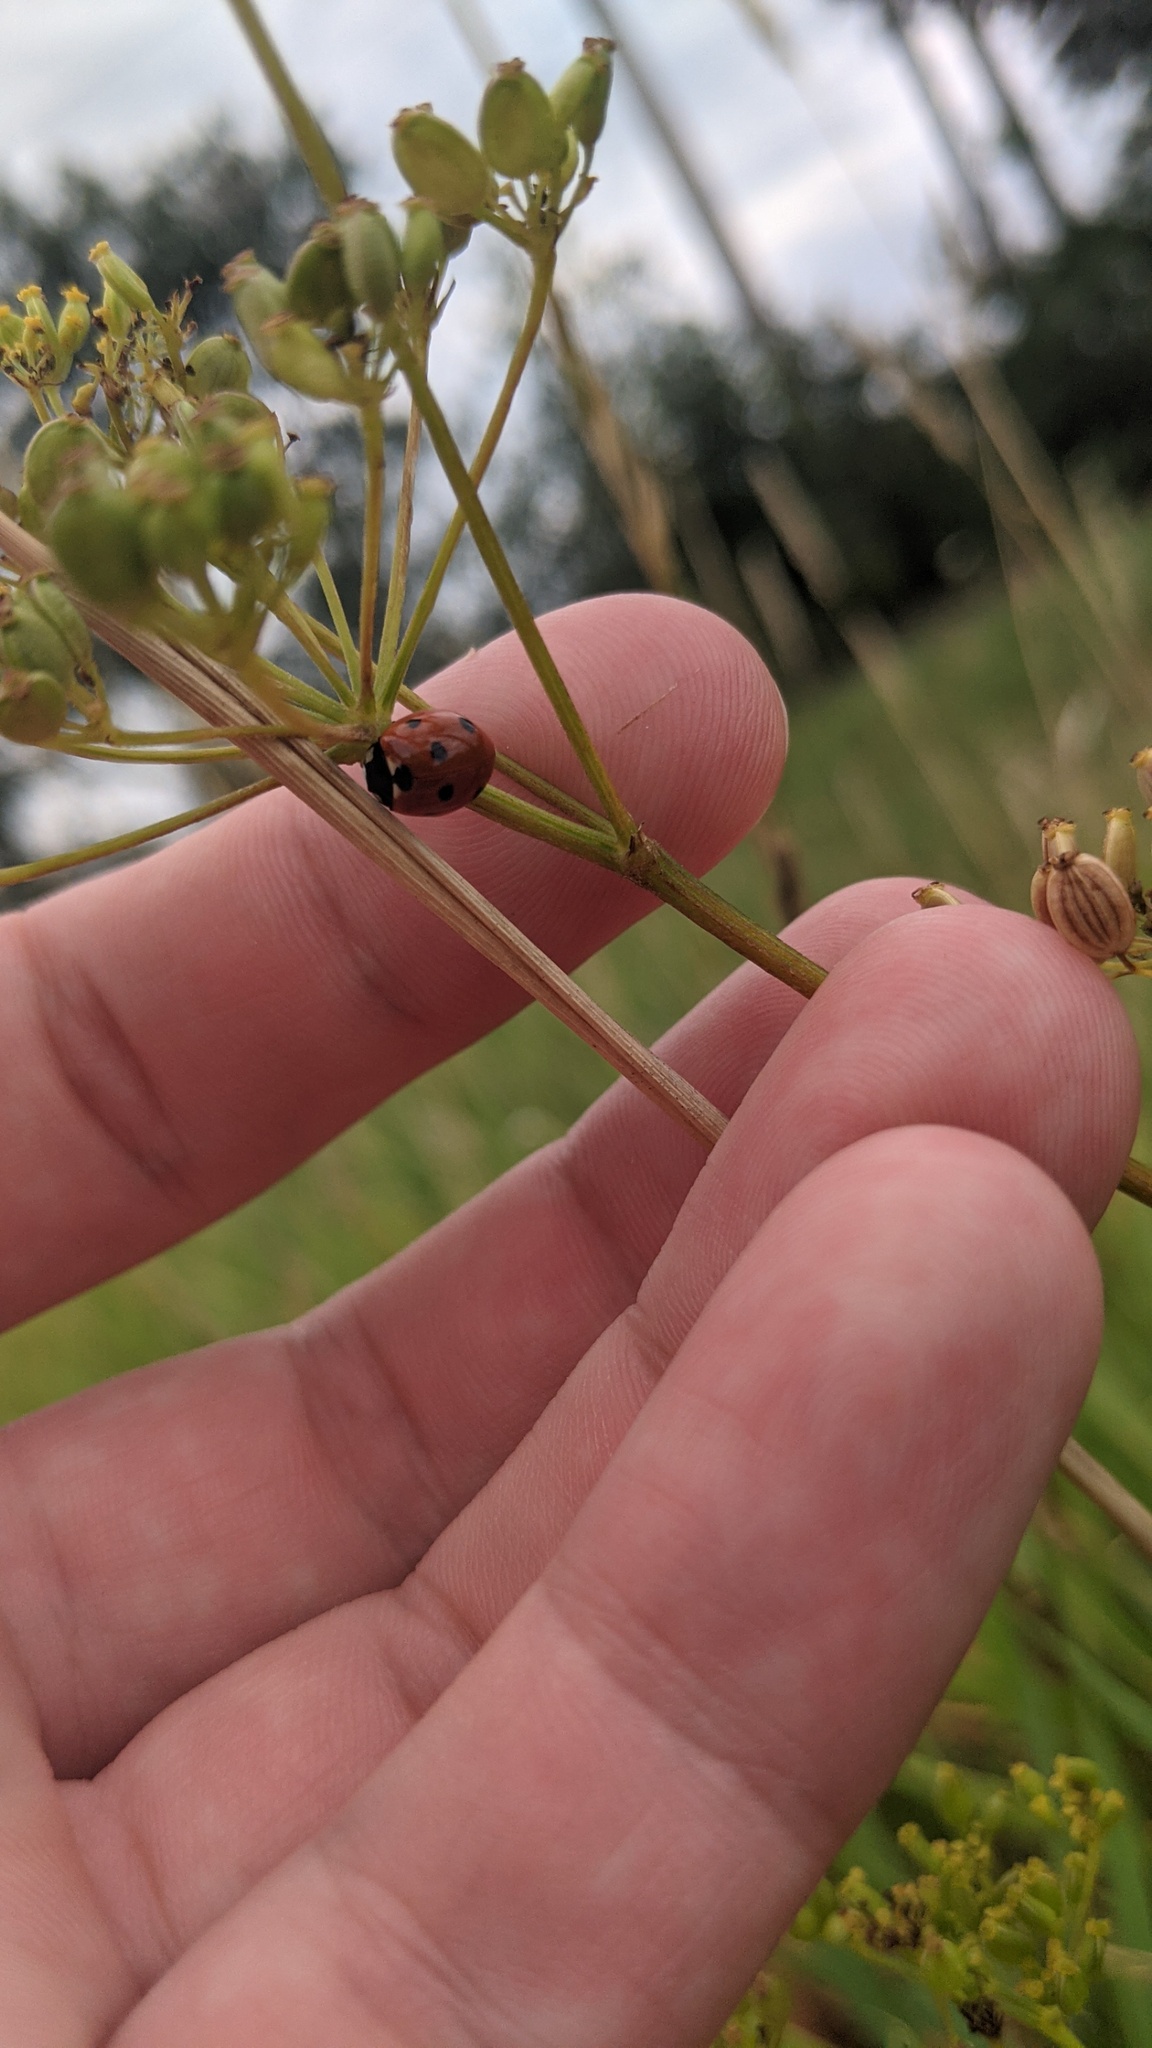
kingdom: Animalia
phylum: Arthropoda
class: Insecta
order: Coleoptera
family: Coccinellidae
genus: Coccinella
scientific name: Coccinella septempunctata
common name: Sevenspotted lady beetle
